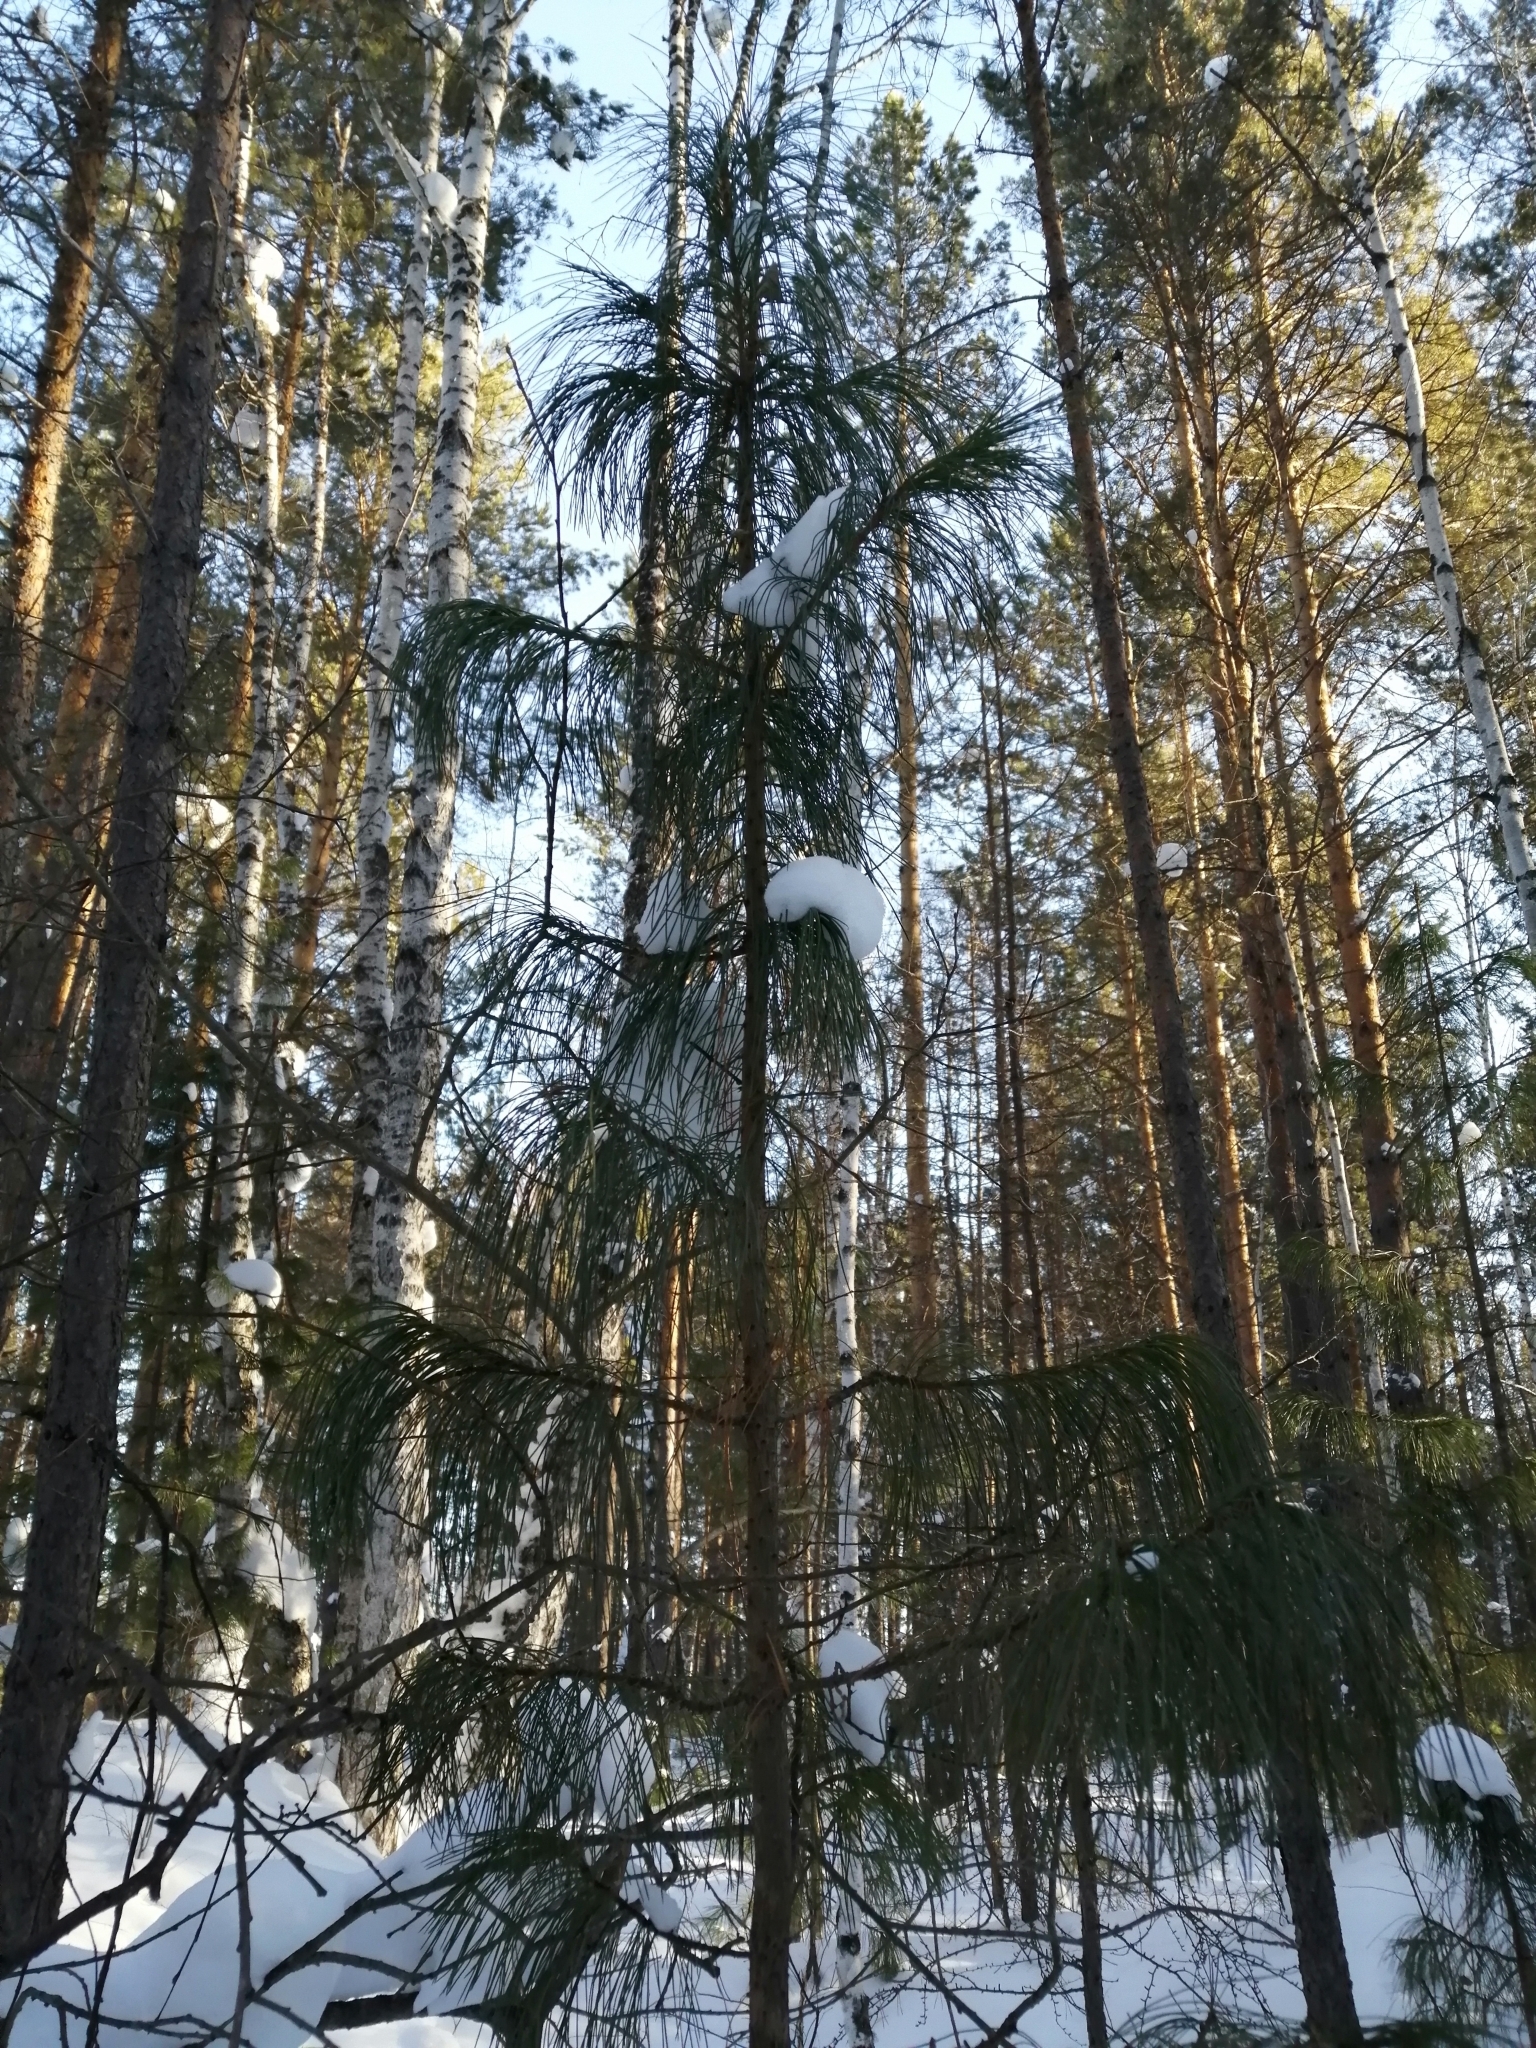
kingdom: Plantae
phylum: Tracheophyta
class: Pinopsida
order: Pinales
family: Pinaceae
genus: Pinus
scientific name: Pinus sibirica
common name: Siberian pine
